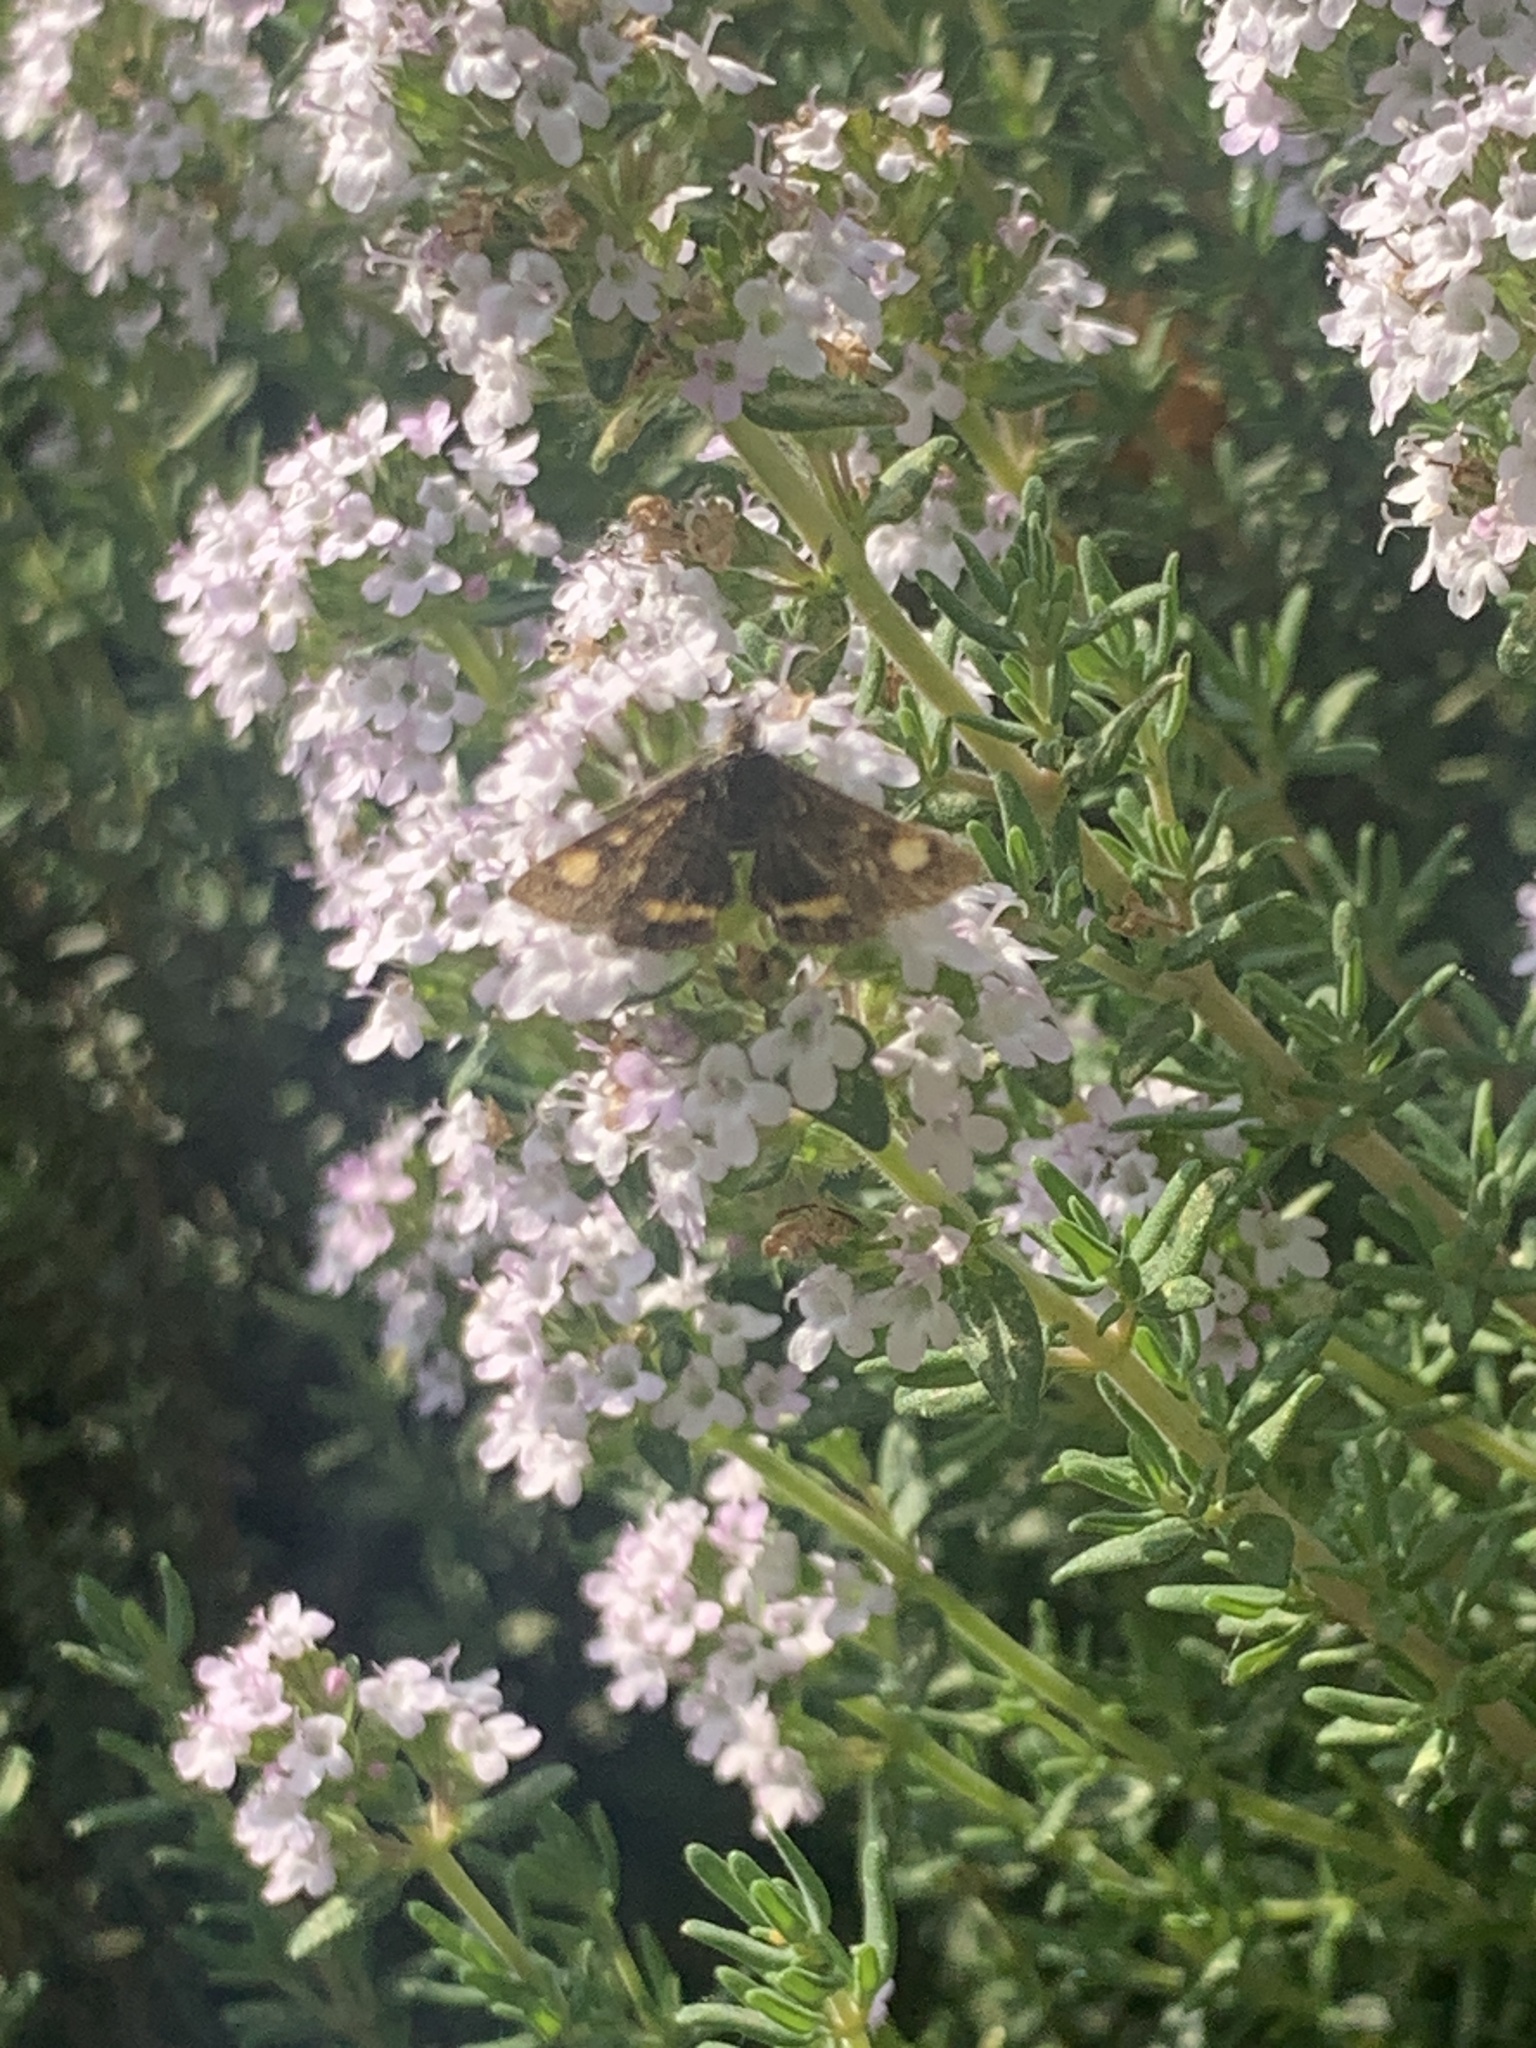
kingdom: Animalia
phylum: Arthropoda
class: Insecta
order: Lepidoptera
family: Crambidae
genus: Pyrausta
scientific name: Pyrausta aurata
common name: Small purple & gold
